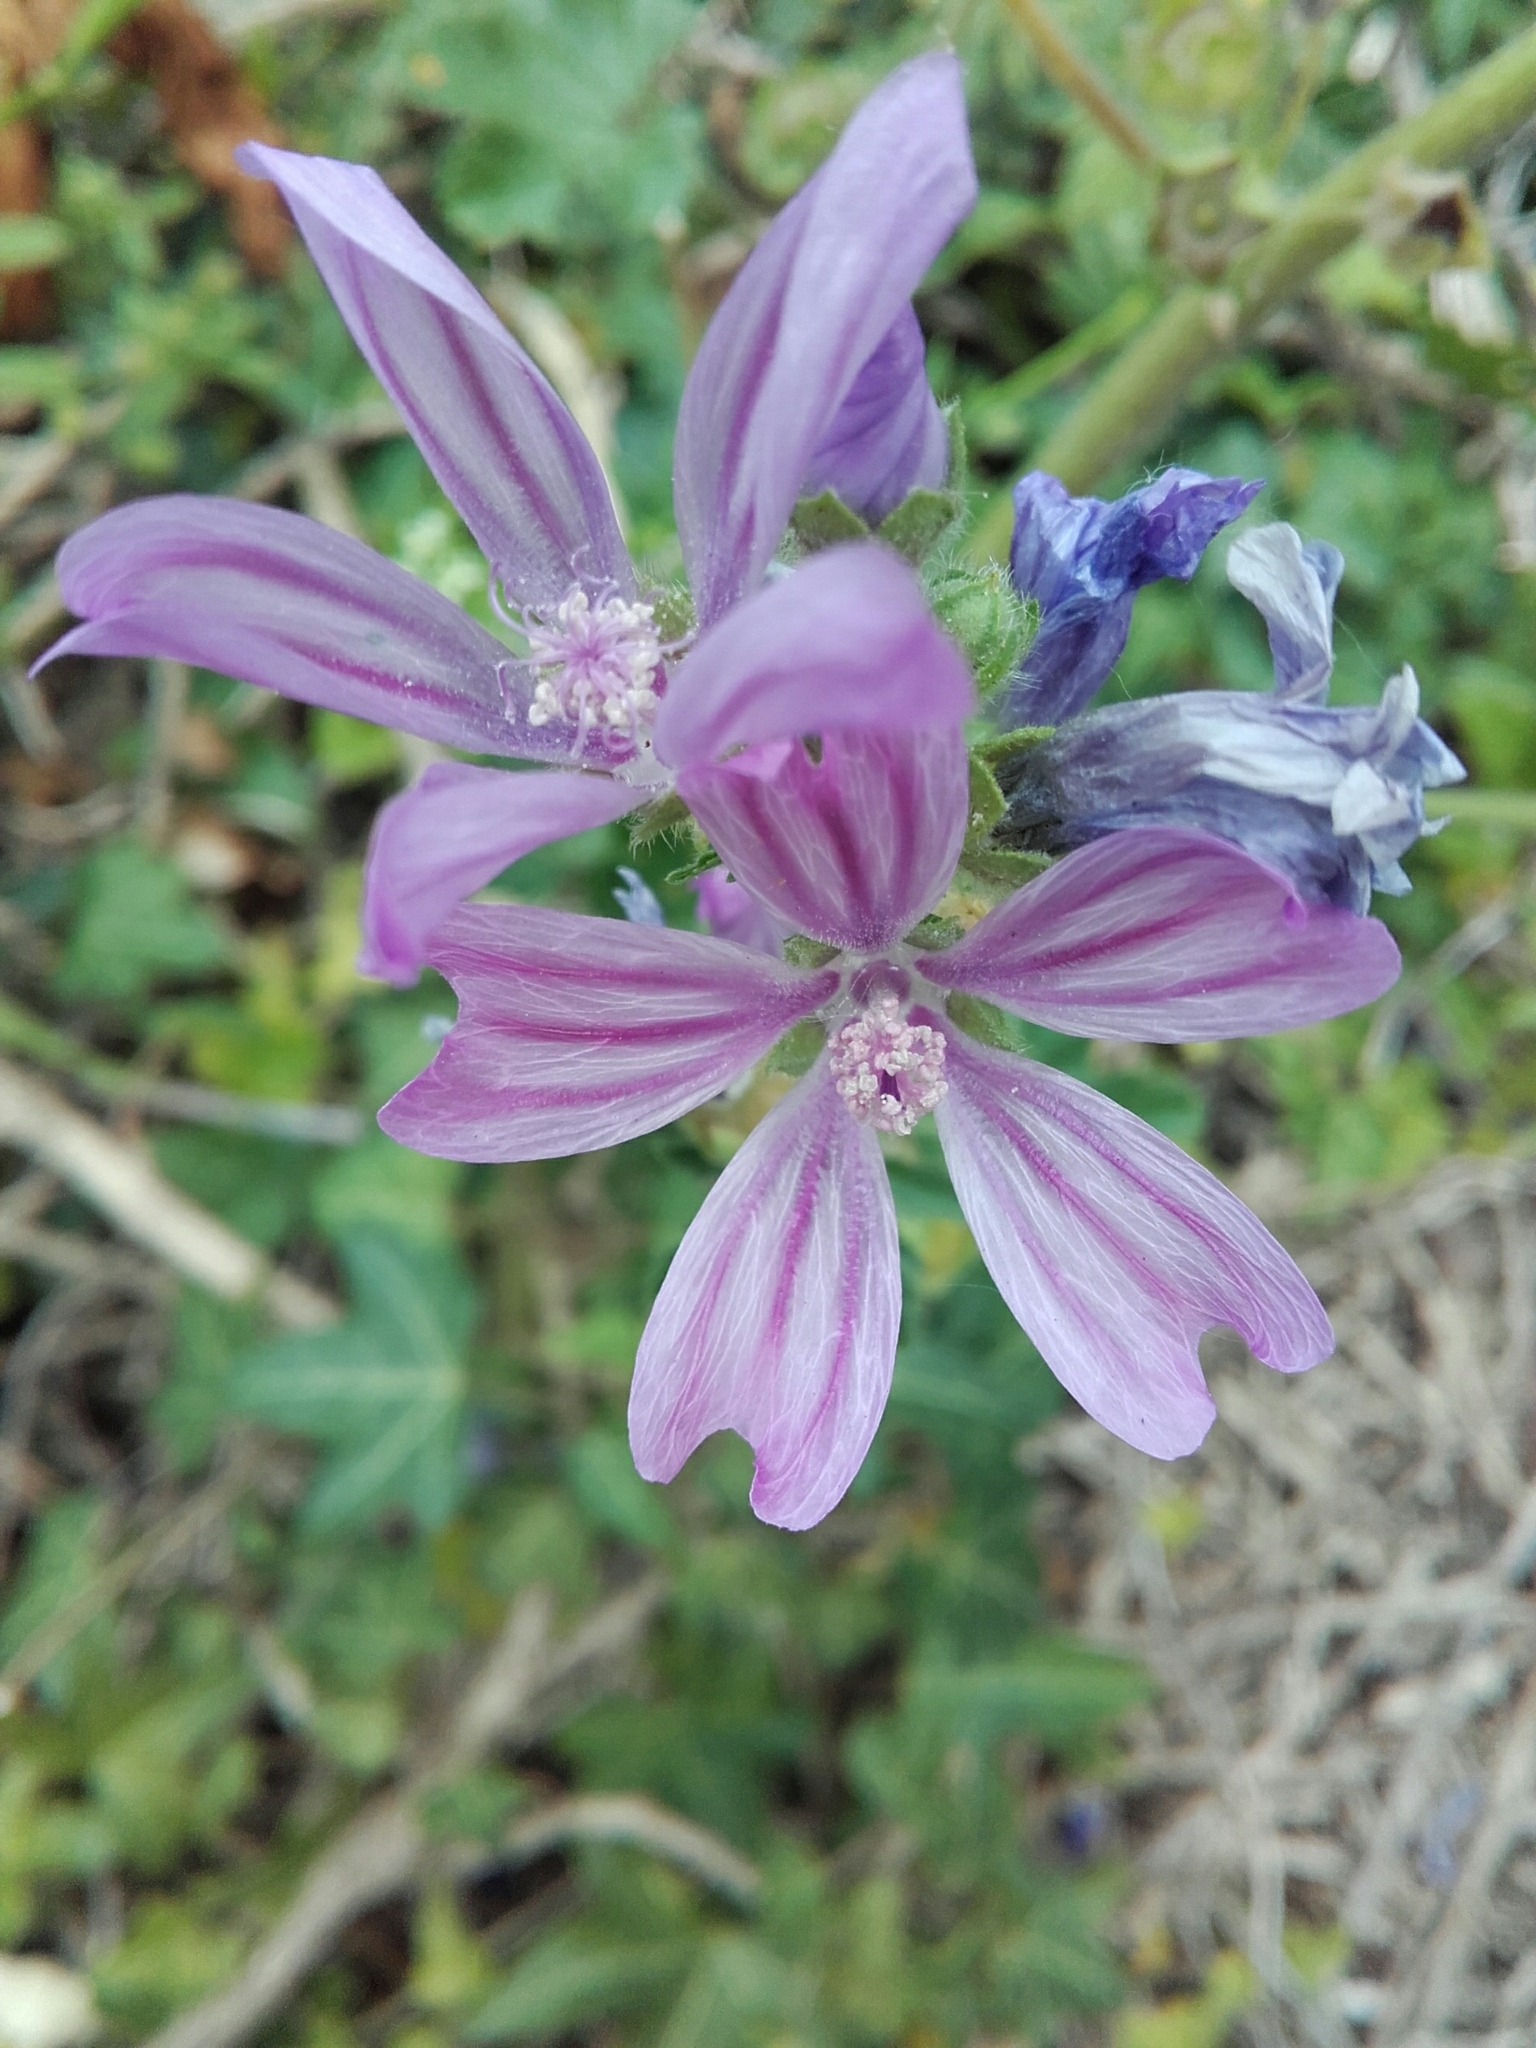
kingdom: Plantae
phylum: Tracheophyta
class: Magnoliopsida
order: Malvales
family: Malvaceae
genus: Malva
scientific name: Malva sylvestris
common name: Common mallow
